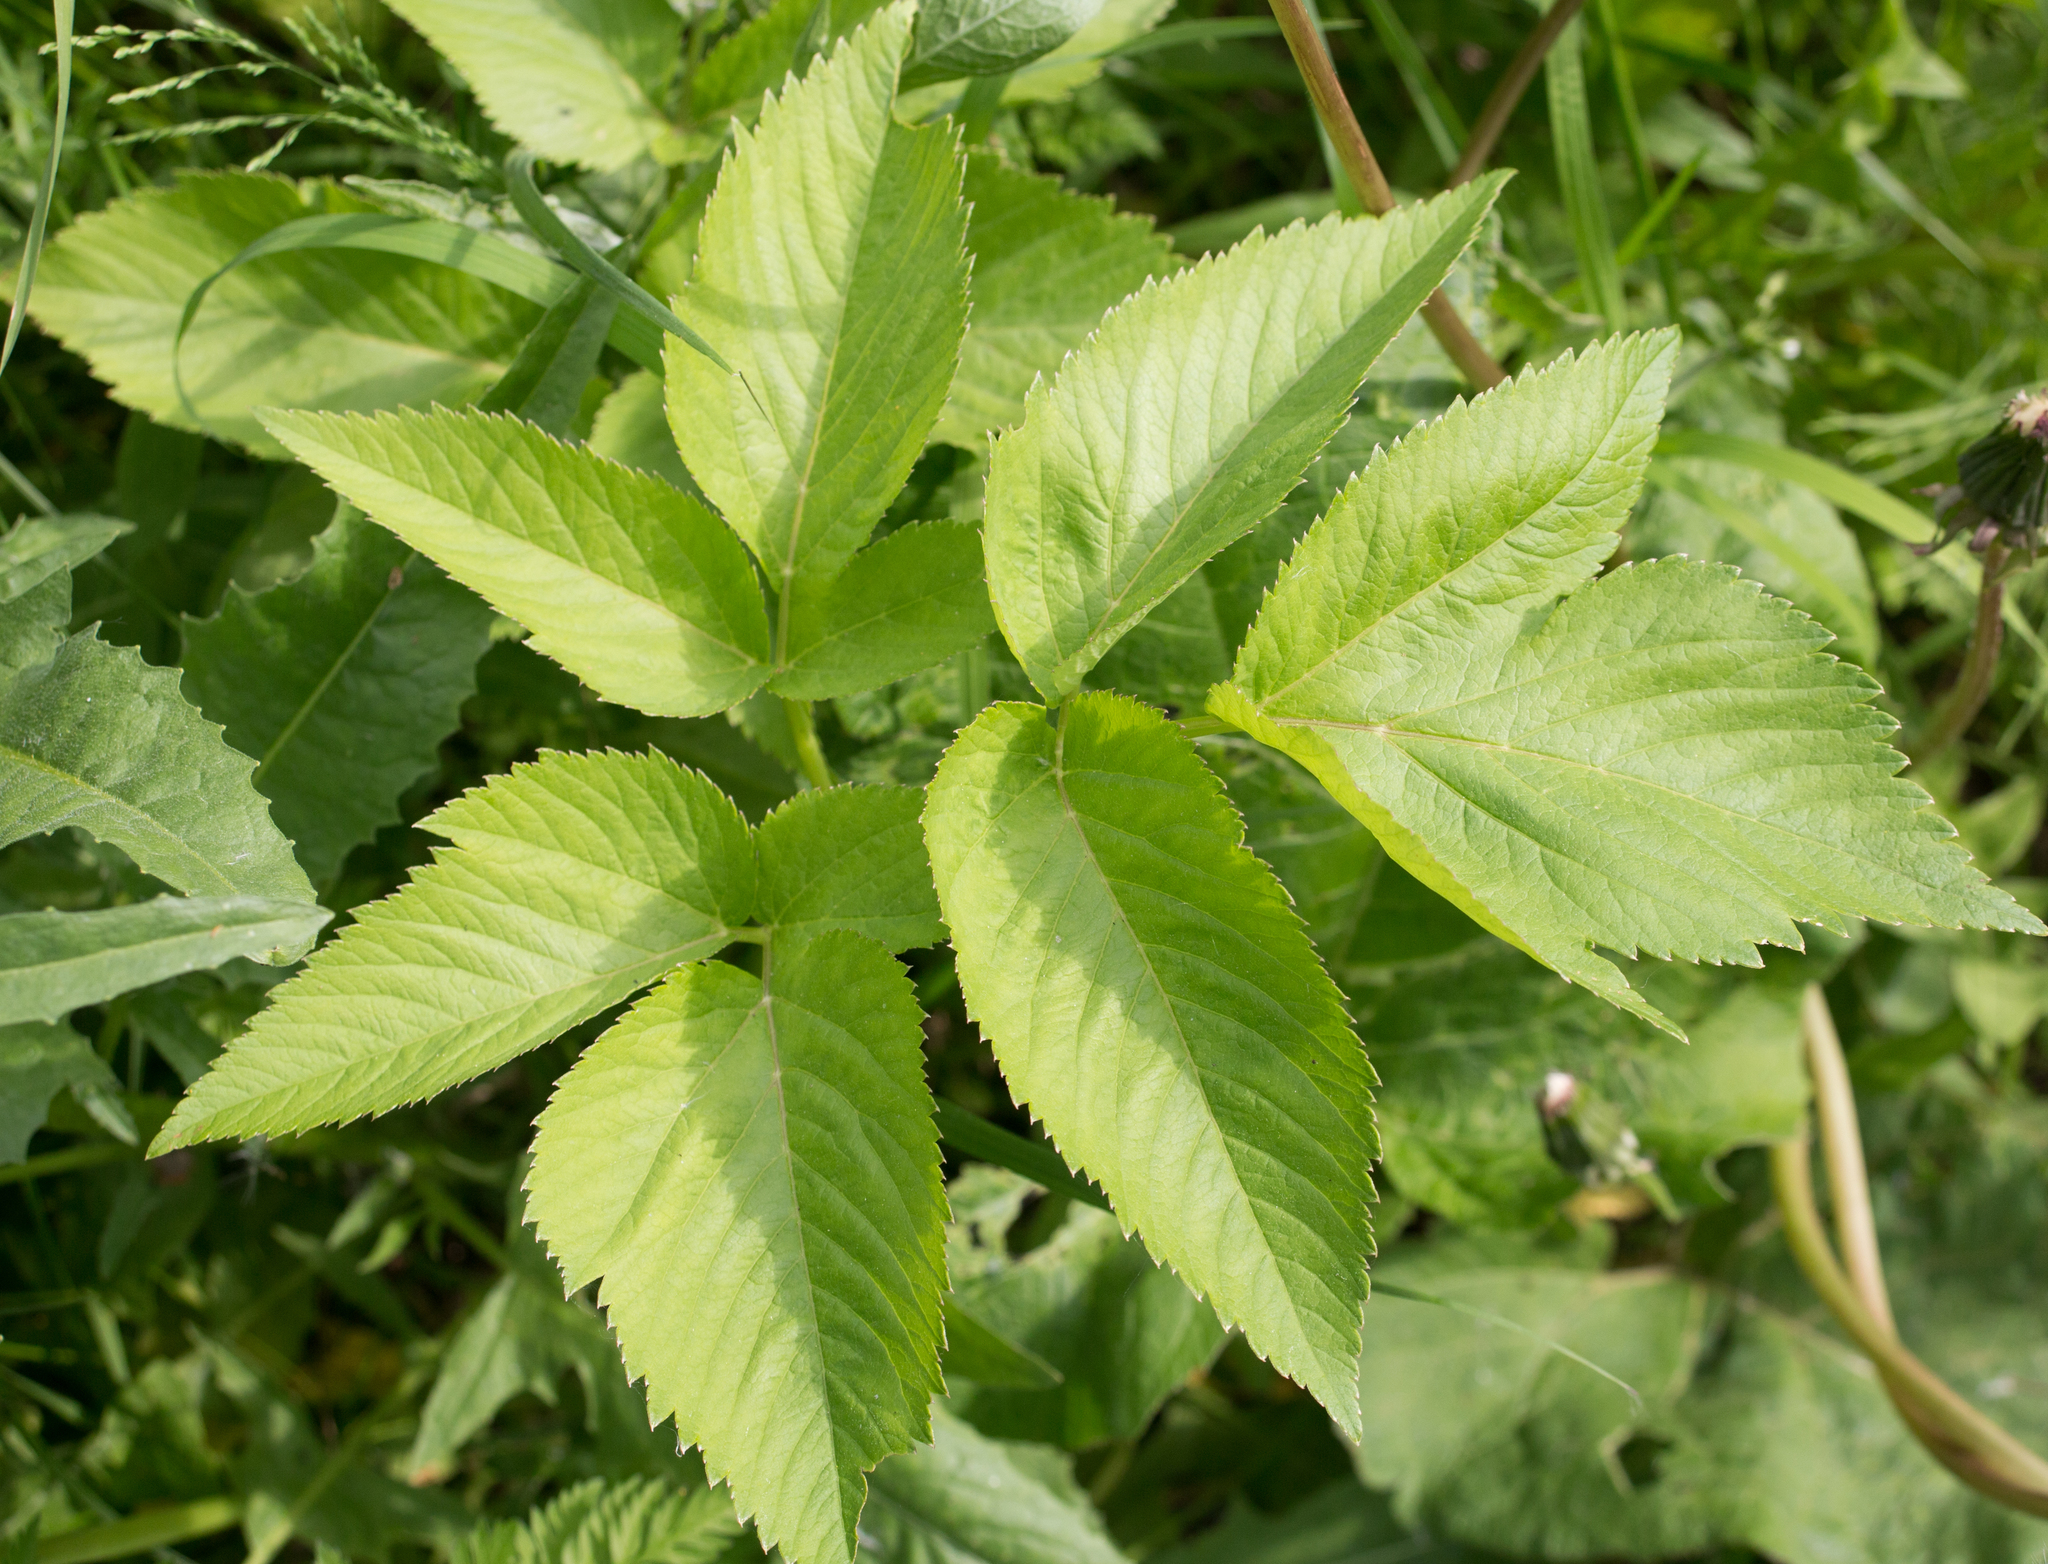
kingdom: Plantae
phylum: Tracheophyta
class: Magnoliopsida
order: Apiales
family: Apiaceae
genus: Angelica
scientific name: Angelica archangelica
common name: Garden angelica
